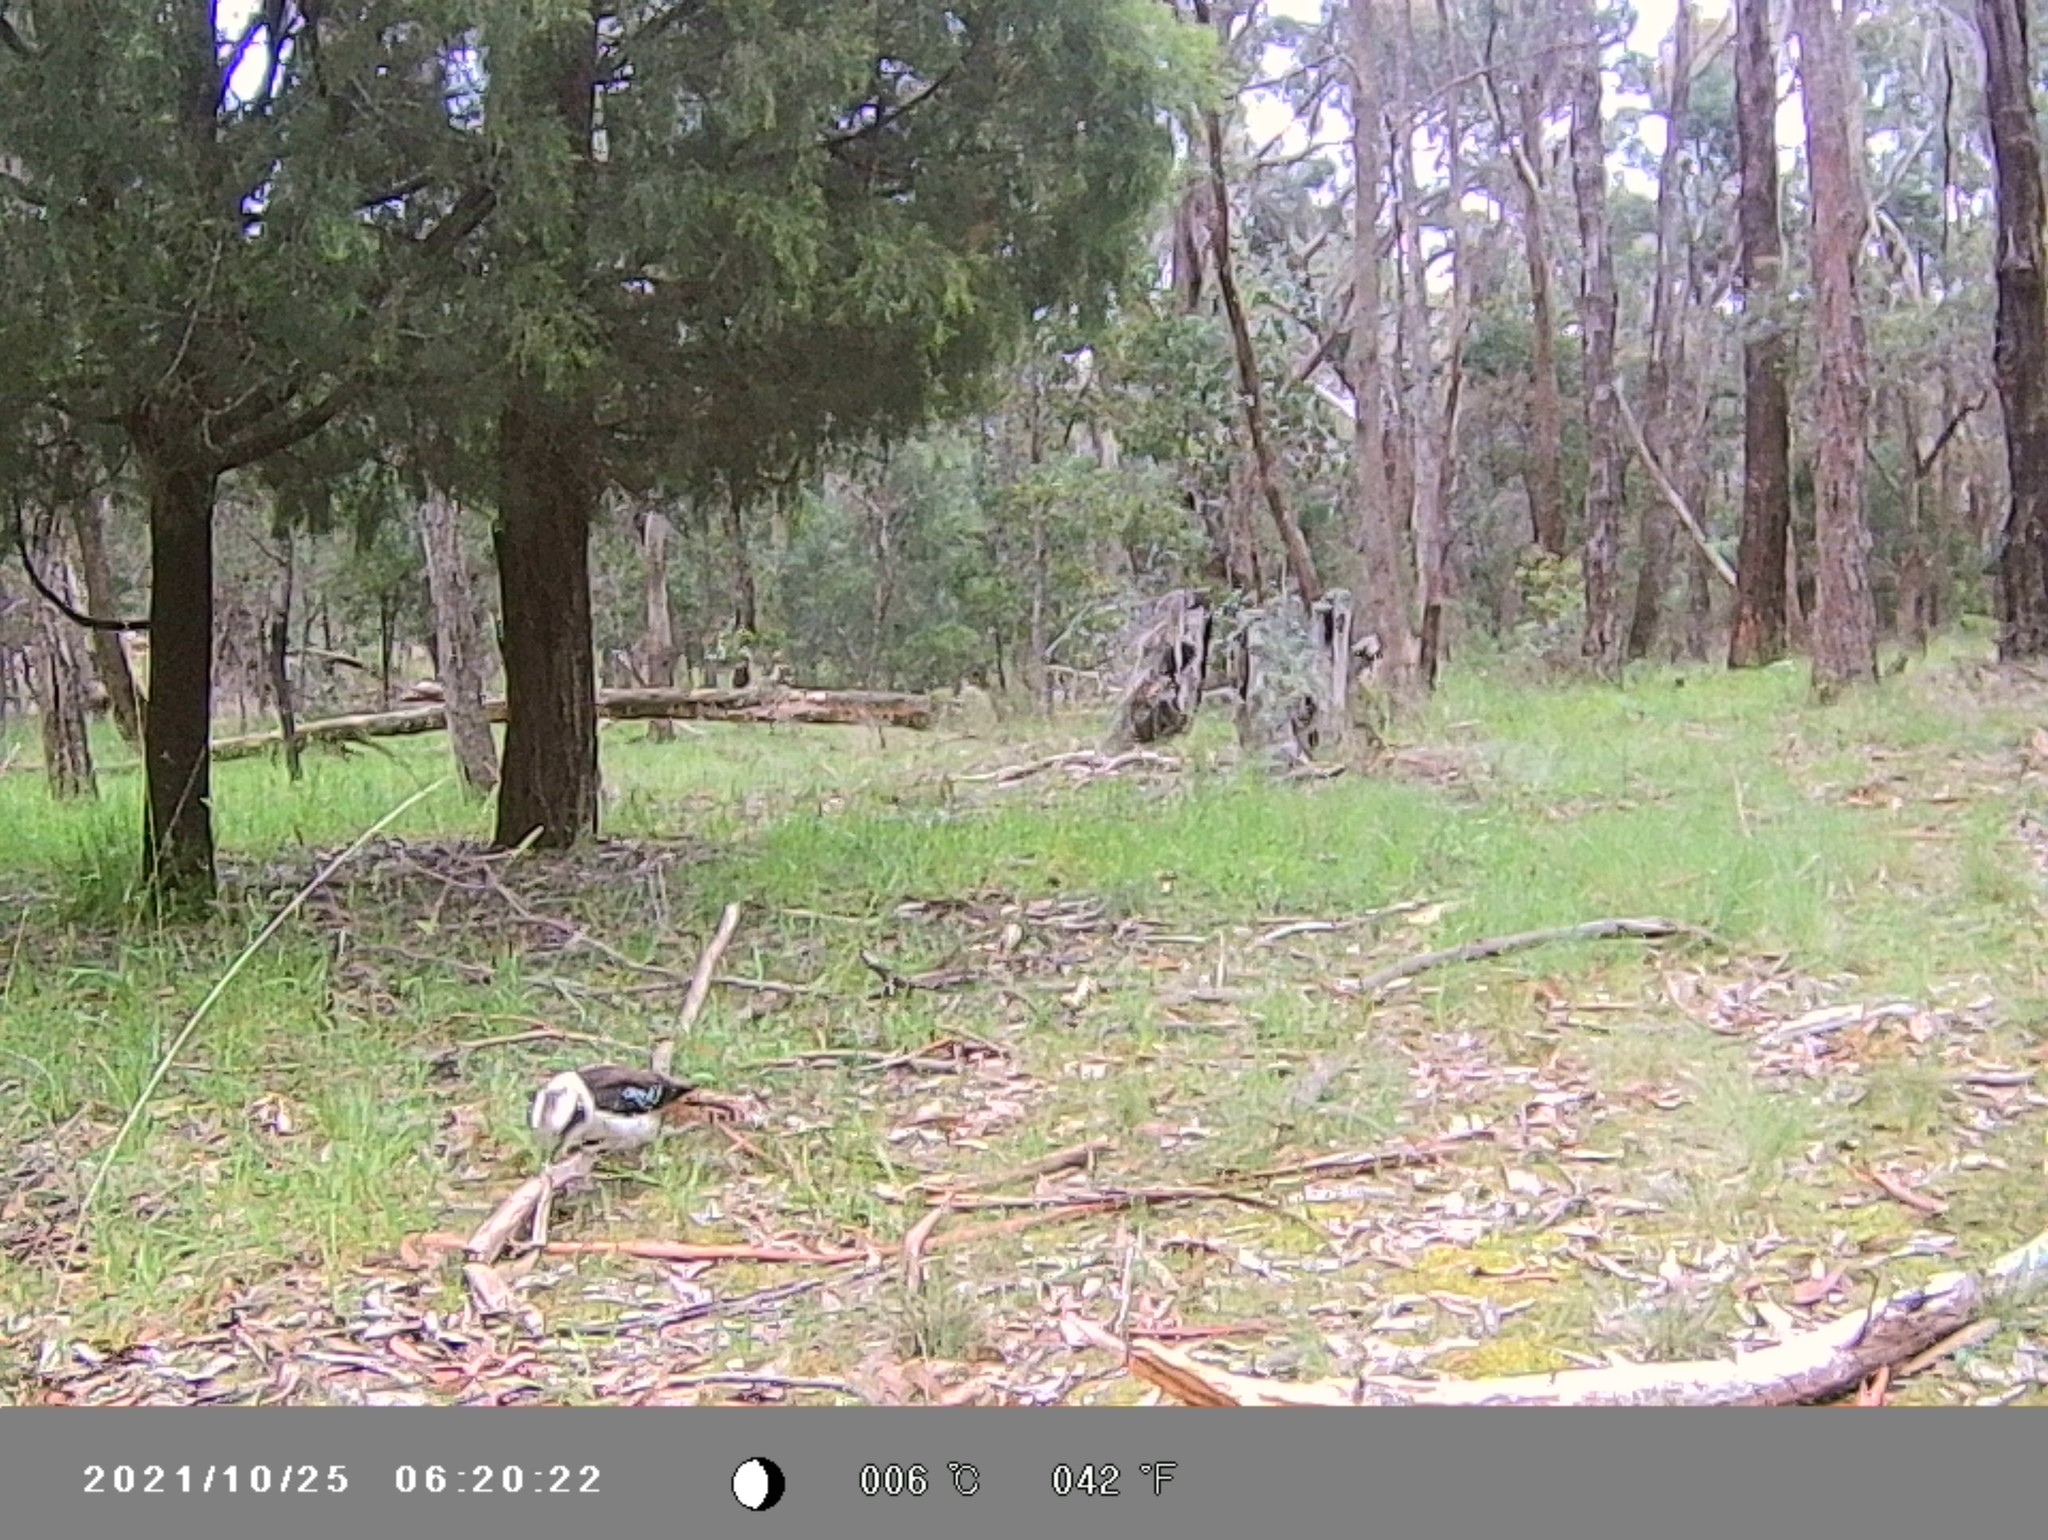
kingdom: Animalia
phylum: Chordata
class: Aves
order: Coraciiformes
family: Alcedinidae
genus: Dacelo
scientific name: Dacelo novaeguineae
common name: Laughing kookaburra
